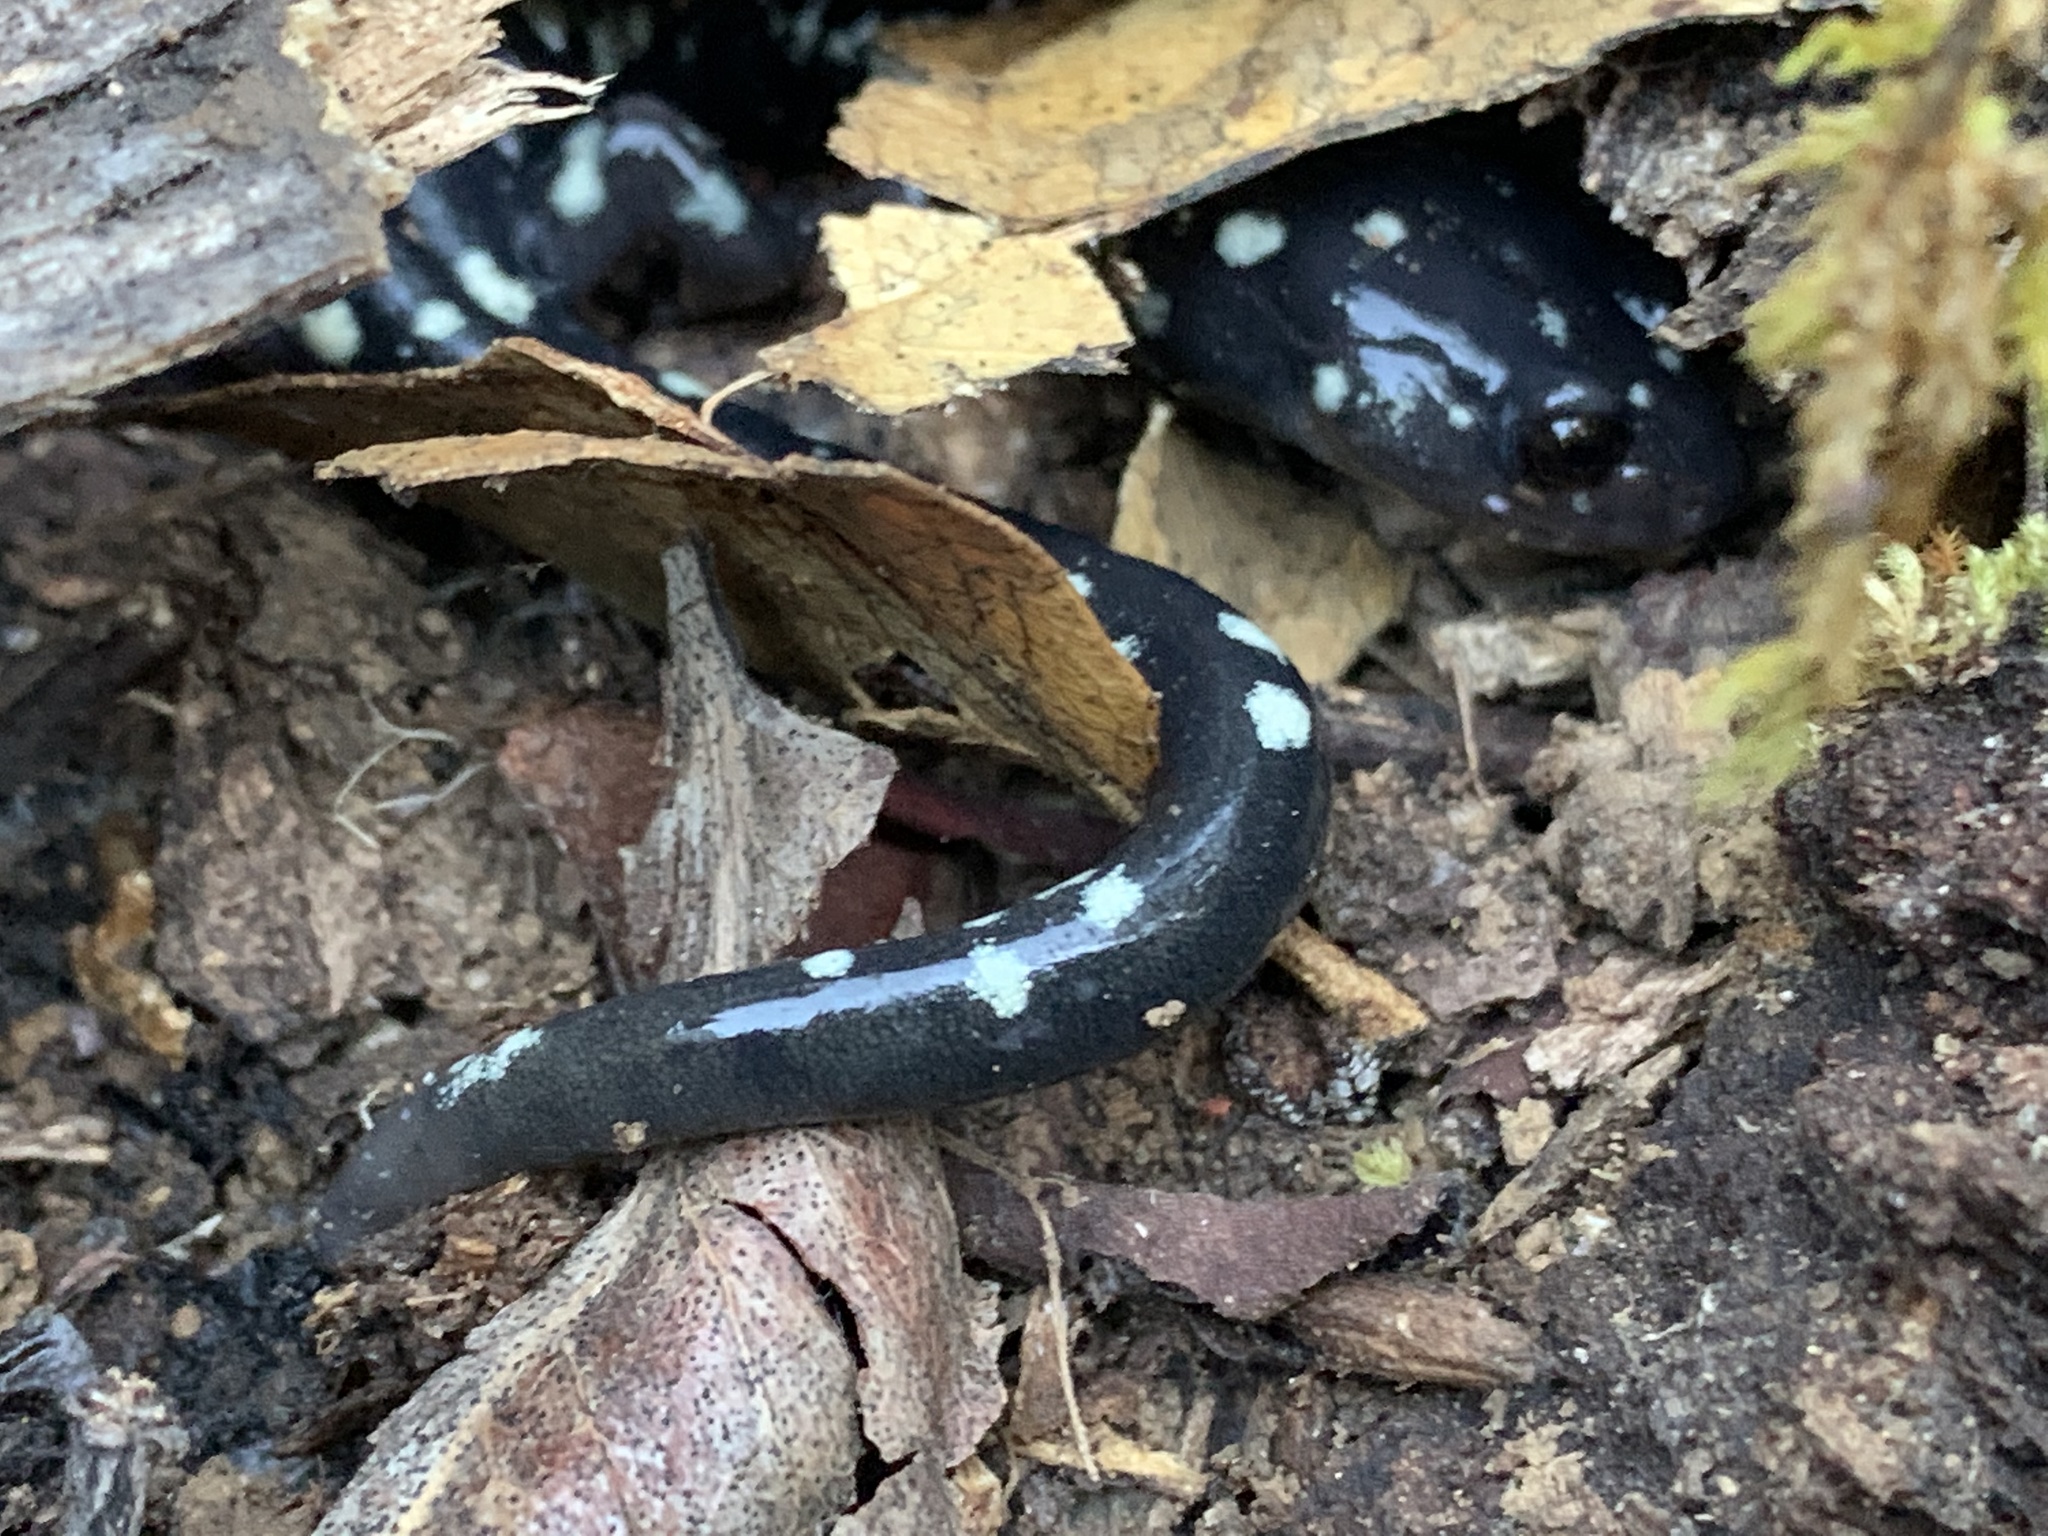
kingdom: Animalia
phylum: Chordata
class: Amphibia
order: Caudata
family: Plethodontidae
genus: Aneides
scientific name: Aneides flavipunctatus
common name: Black salamander
